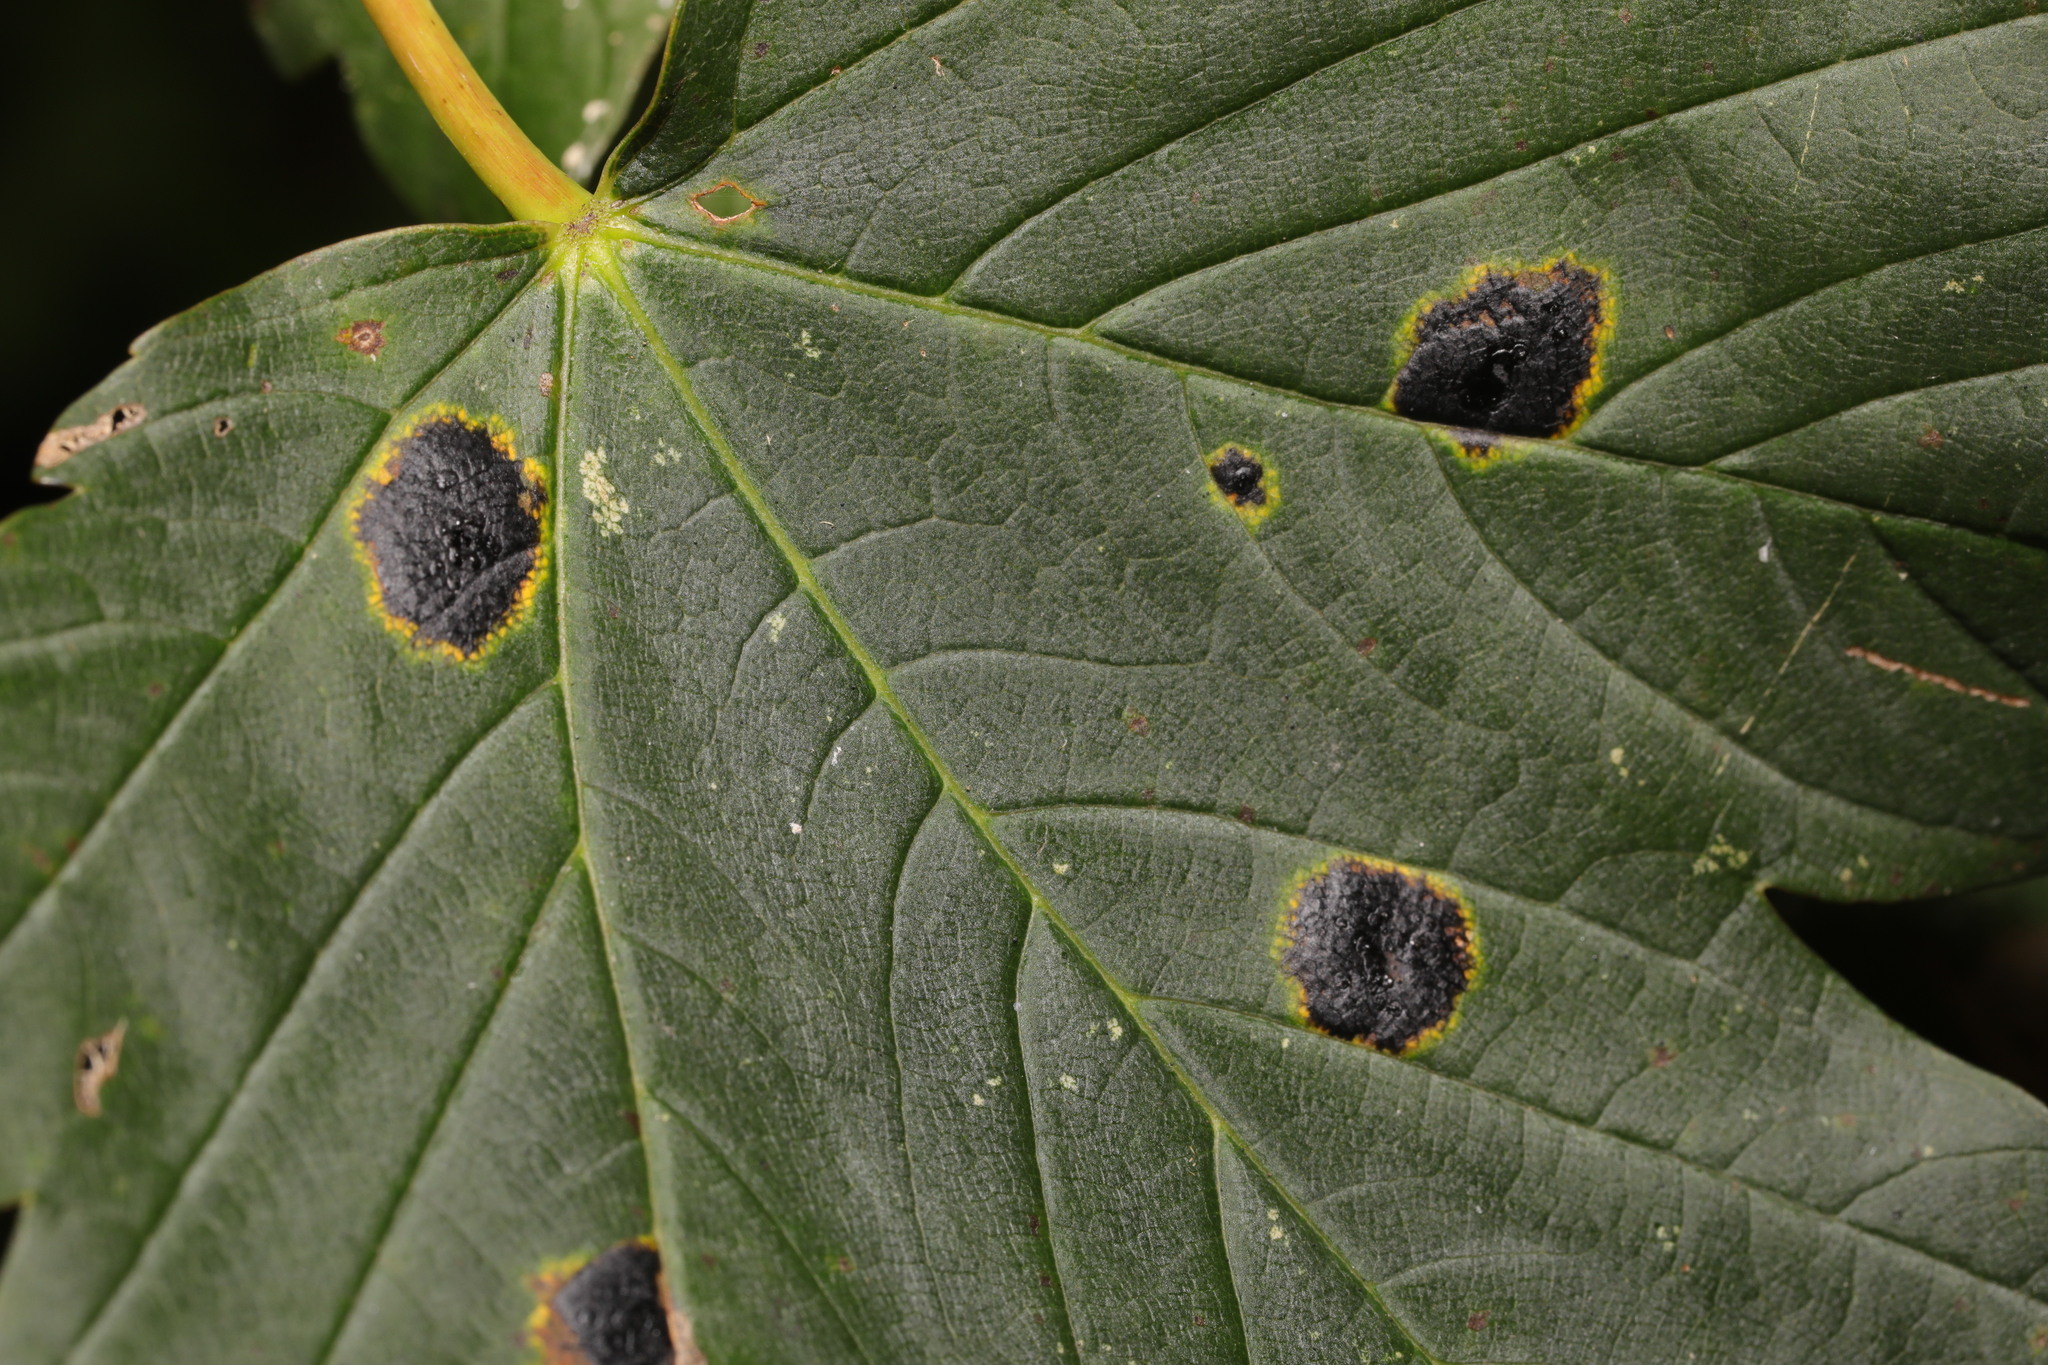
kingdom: Fungi
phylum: Ascomycota
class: Leotiomycetes
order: Rhytismatales
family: Rhytismataceae
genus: Rhytisma
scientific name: Rhytisma acerinum
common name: European tar spot
